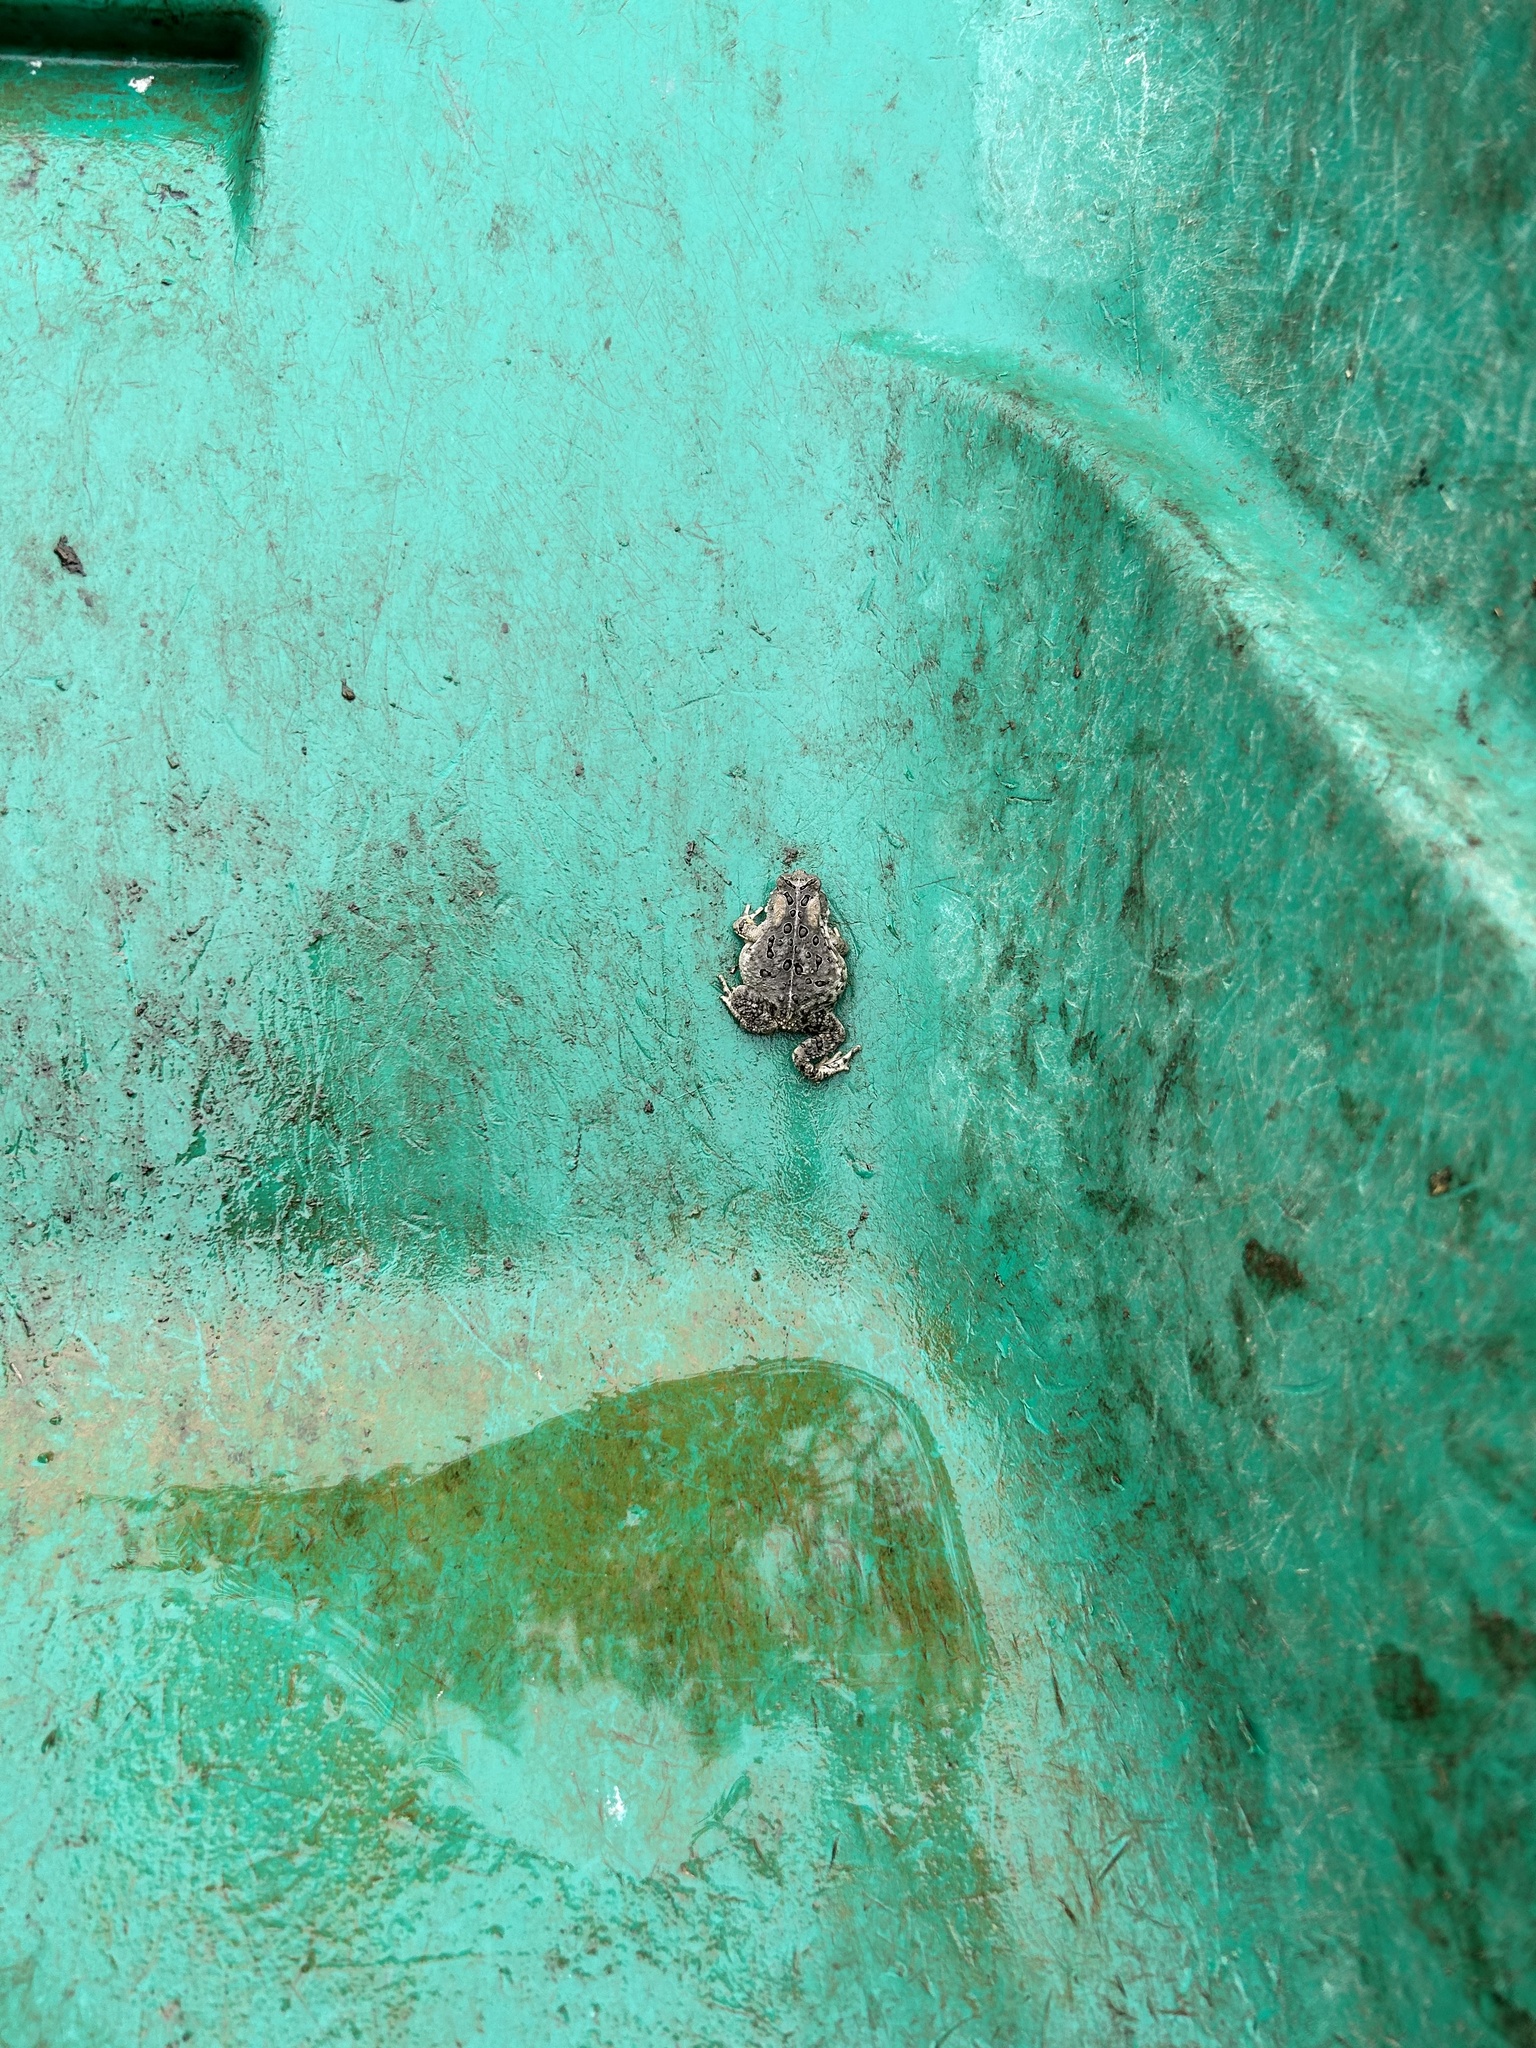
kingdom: Animalia
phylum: Chordata
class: Amphibia
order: Anura
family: Bufonidae
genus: Anaxyrus
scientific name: Anaxyrus americanus
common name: American toad
